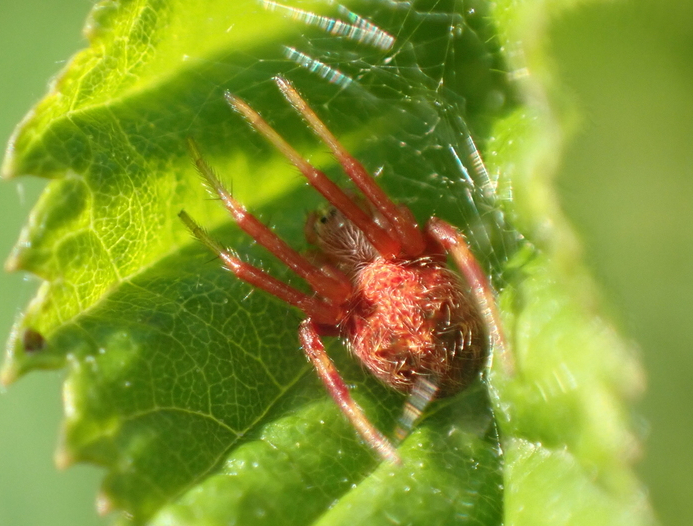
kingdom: Animalia
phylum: Arthropoda
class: Arachnida
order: Araneae
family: Araneidae
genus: Neoscona
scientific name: Neoscona arabesca
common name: Orb weavers
